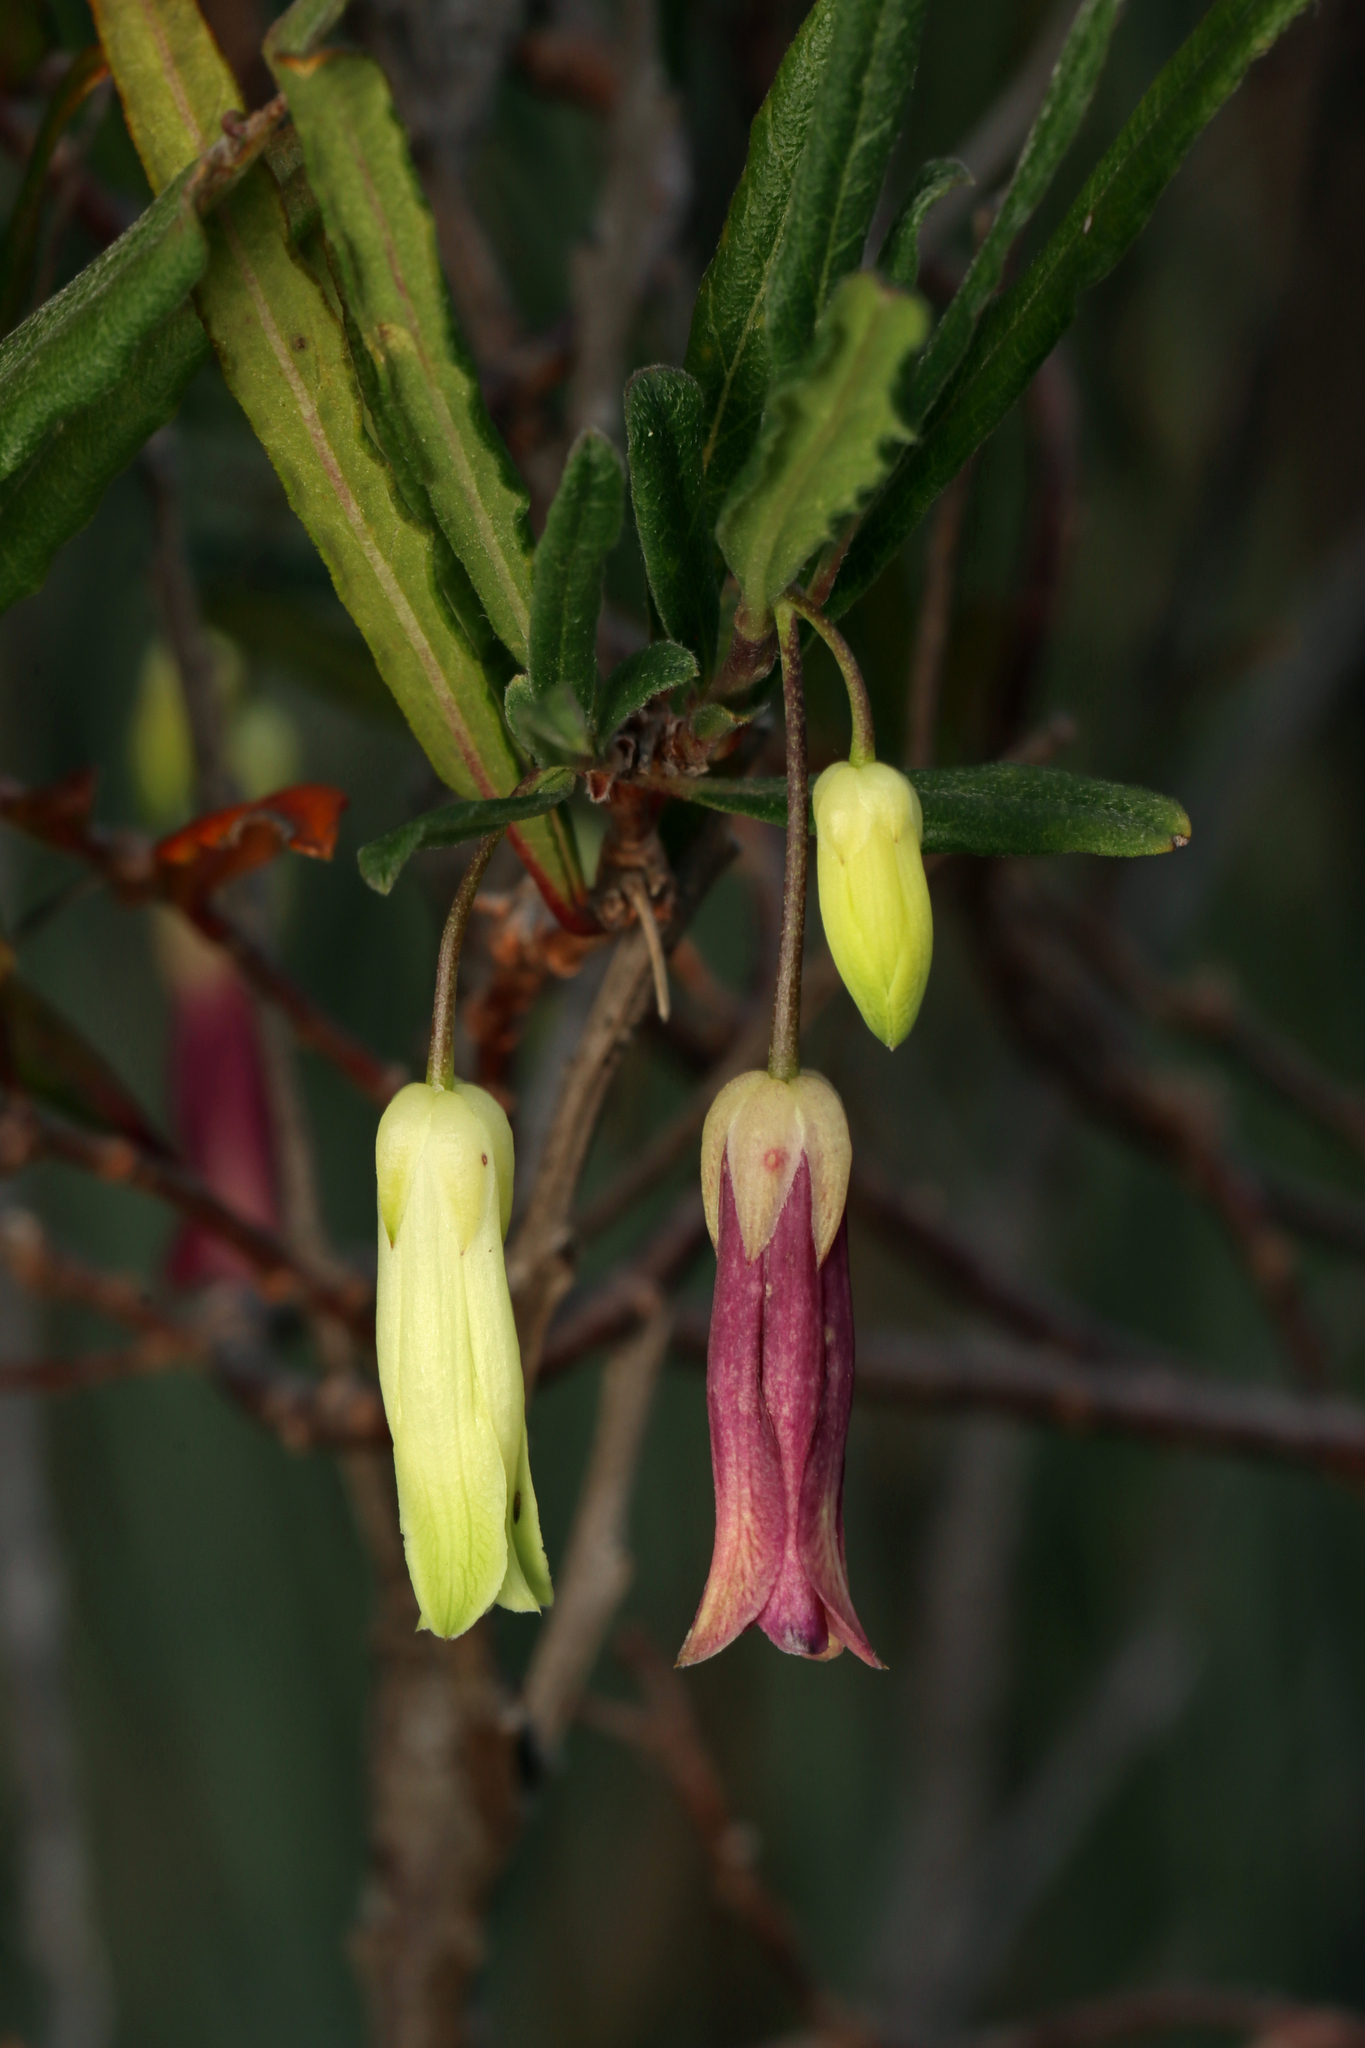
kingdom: Plantae
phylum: Tracheophyta
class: Magnoliopsida
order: Apiales
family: Pittosporaceae
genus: Billardiera
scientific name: Billardiera uniflora
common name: Single-flower apple-berry
